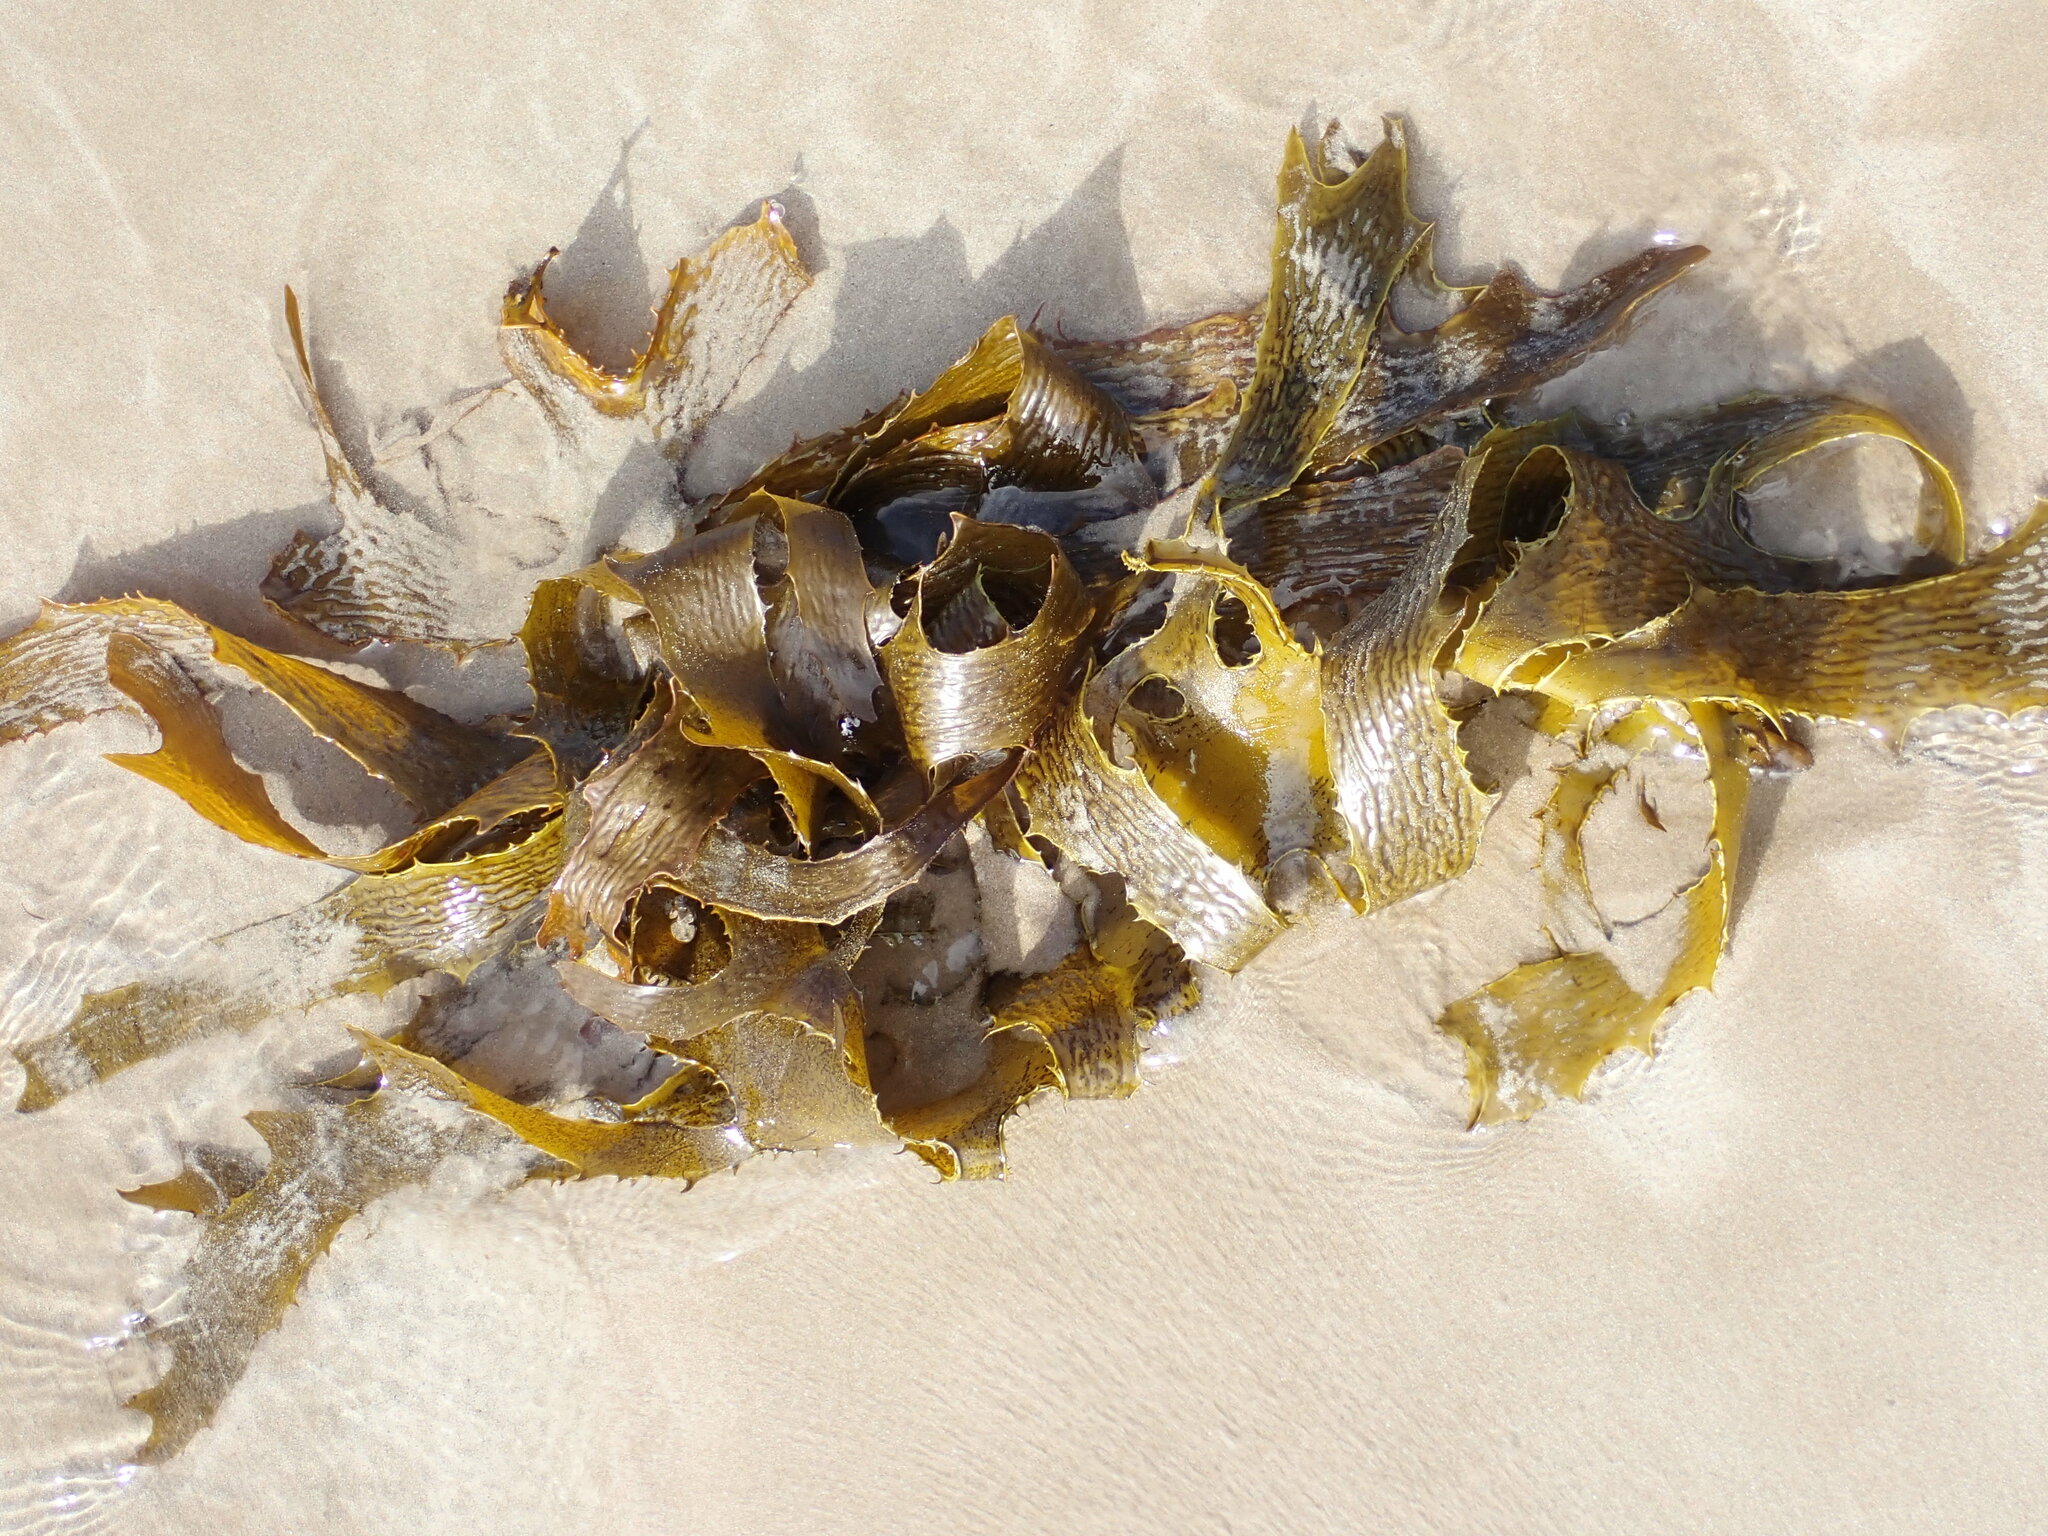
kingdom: Chromista
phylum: Ochrophyta
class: Phaeophyceae
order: Laminariales
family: Lessoniaceae
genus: Ecklonia
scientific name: Ecklonia radiata
